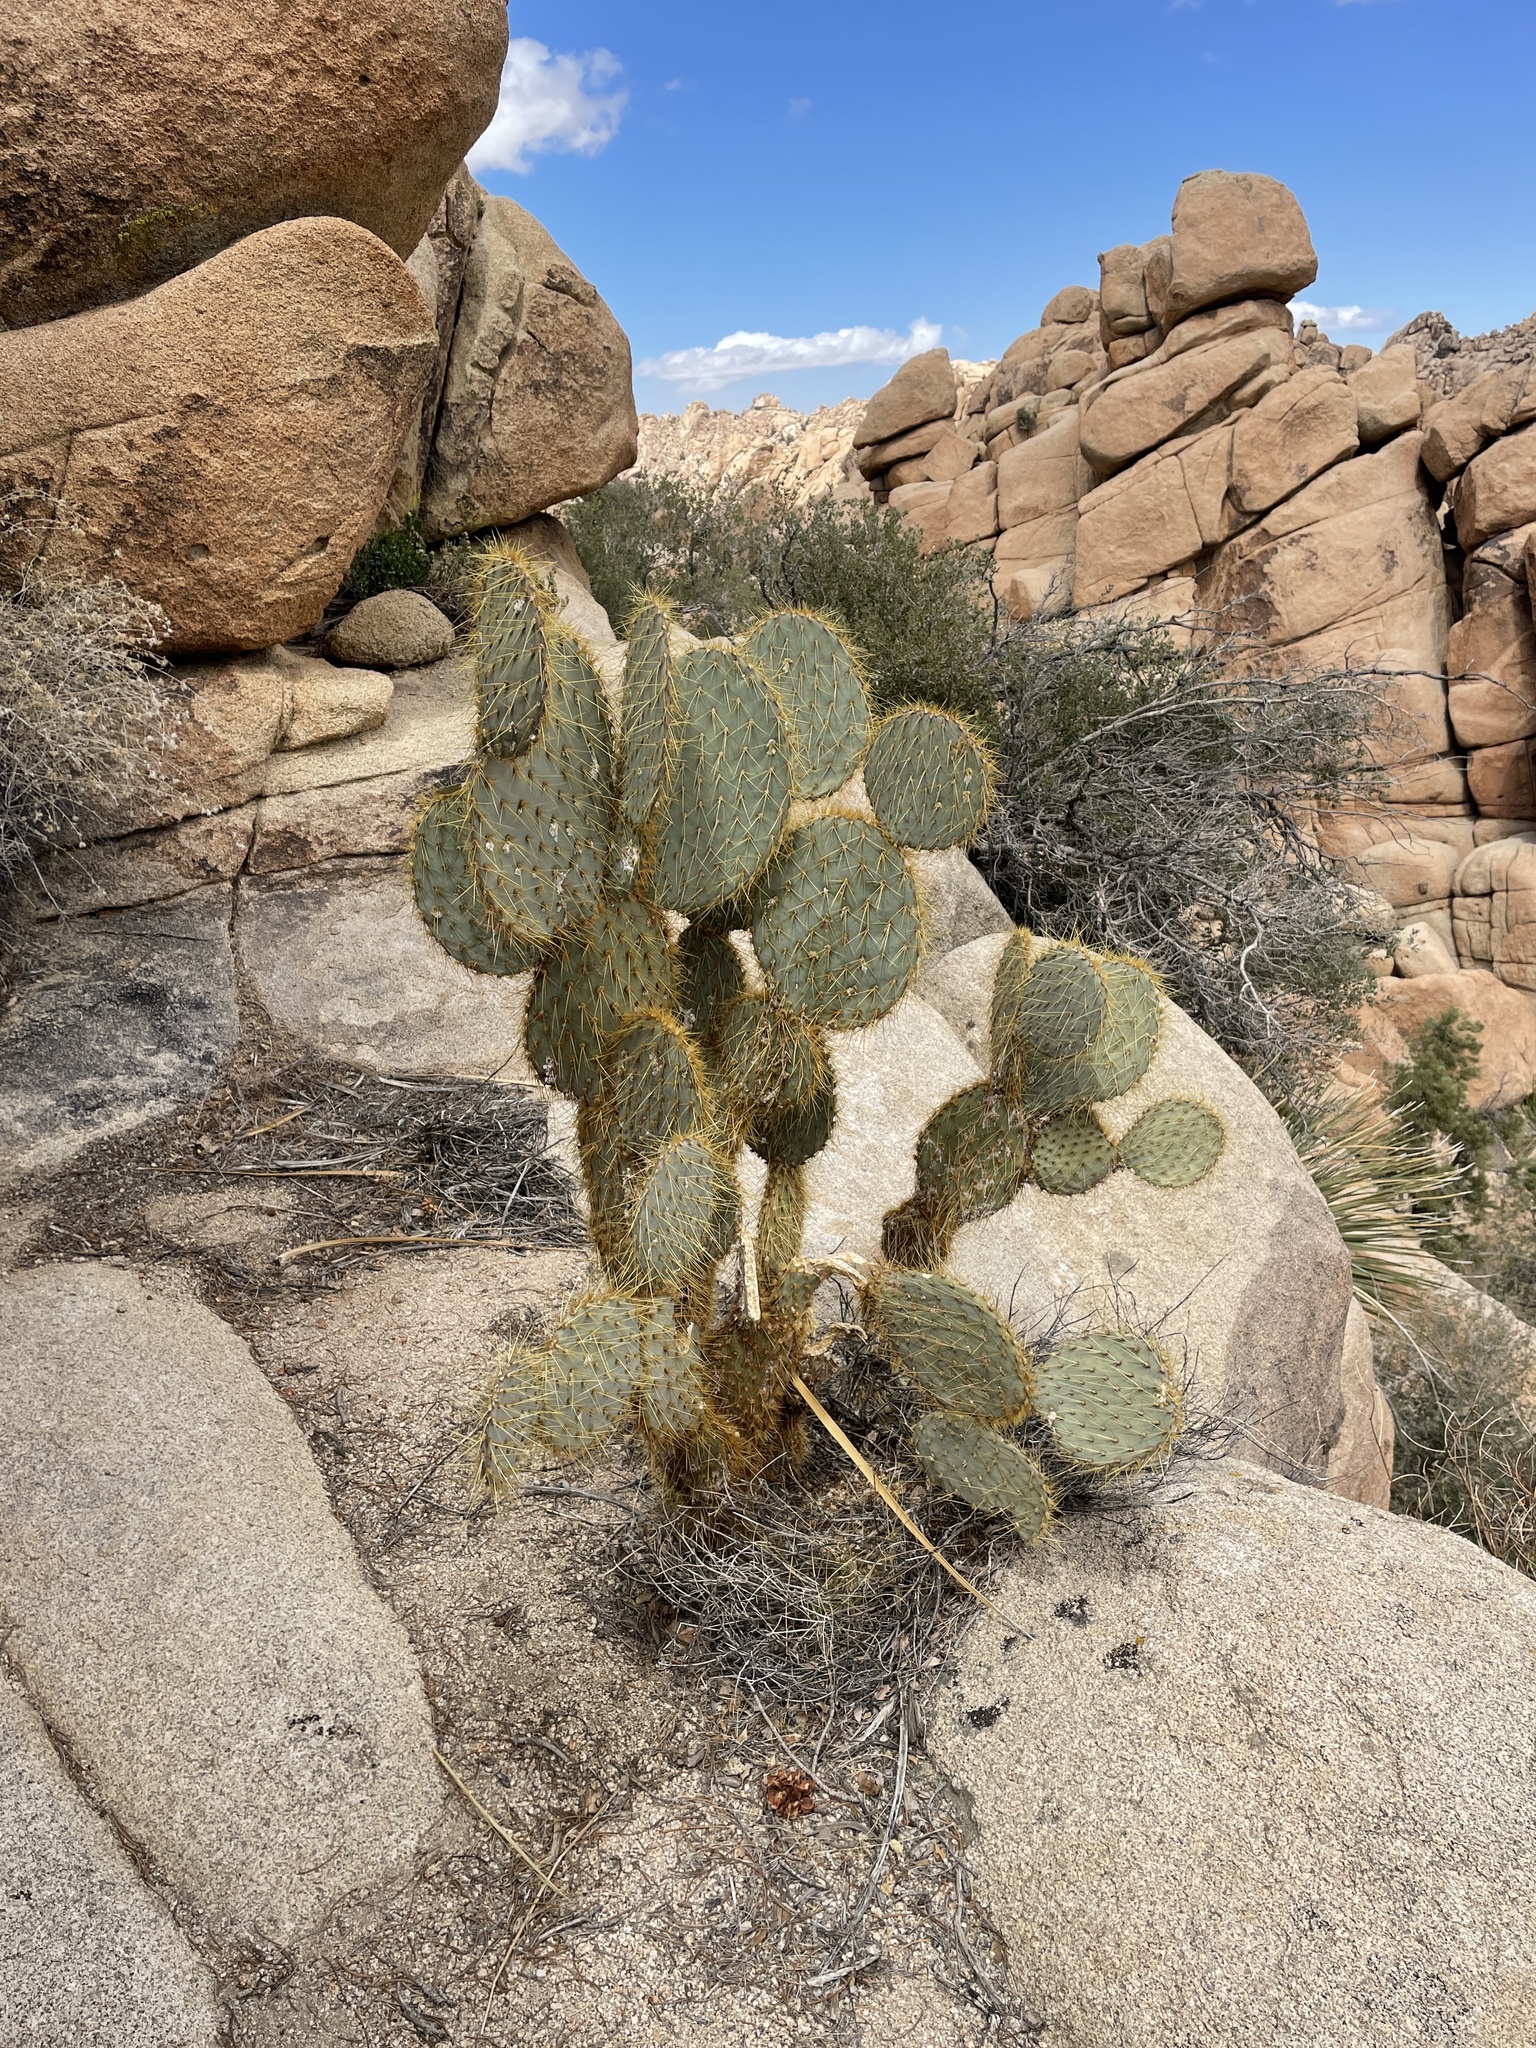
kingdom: Plantae
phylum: Tracheophyta
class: Magnoliopsida
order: Caryophyllales
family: Cactaceae
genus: Opuntia
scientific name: Opuntia chlorotica
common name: Dollar-joint prickly-pear
